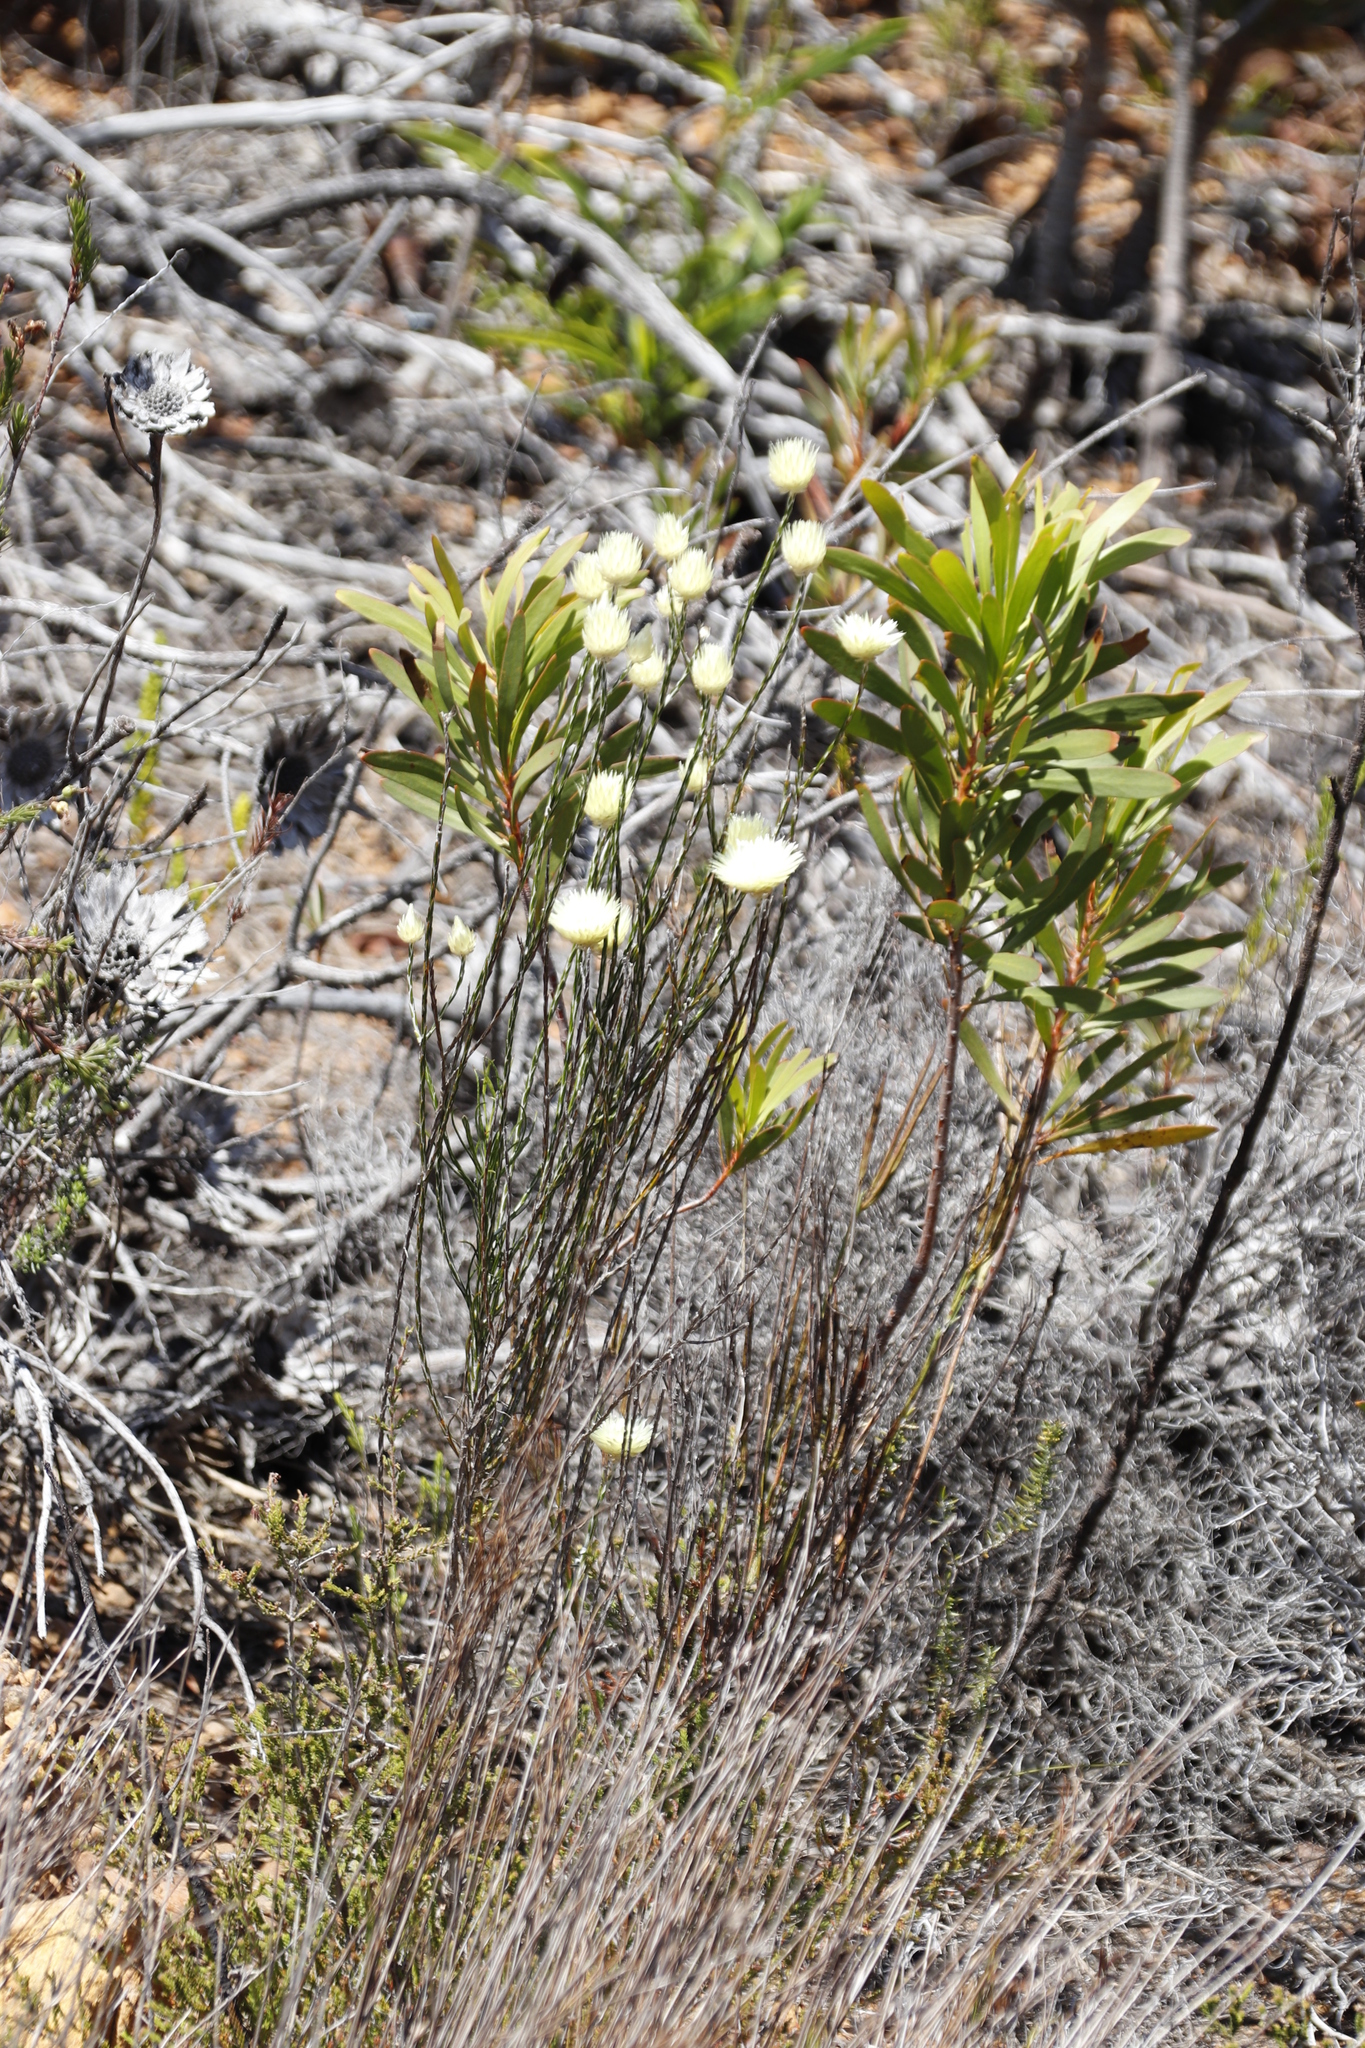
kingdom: Plantae
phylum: Tracheophyta
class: Magnoliopsida
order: Asterales
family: Asteraceae
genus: Edmondia
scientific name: Edmondia sesamoides
